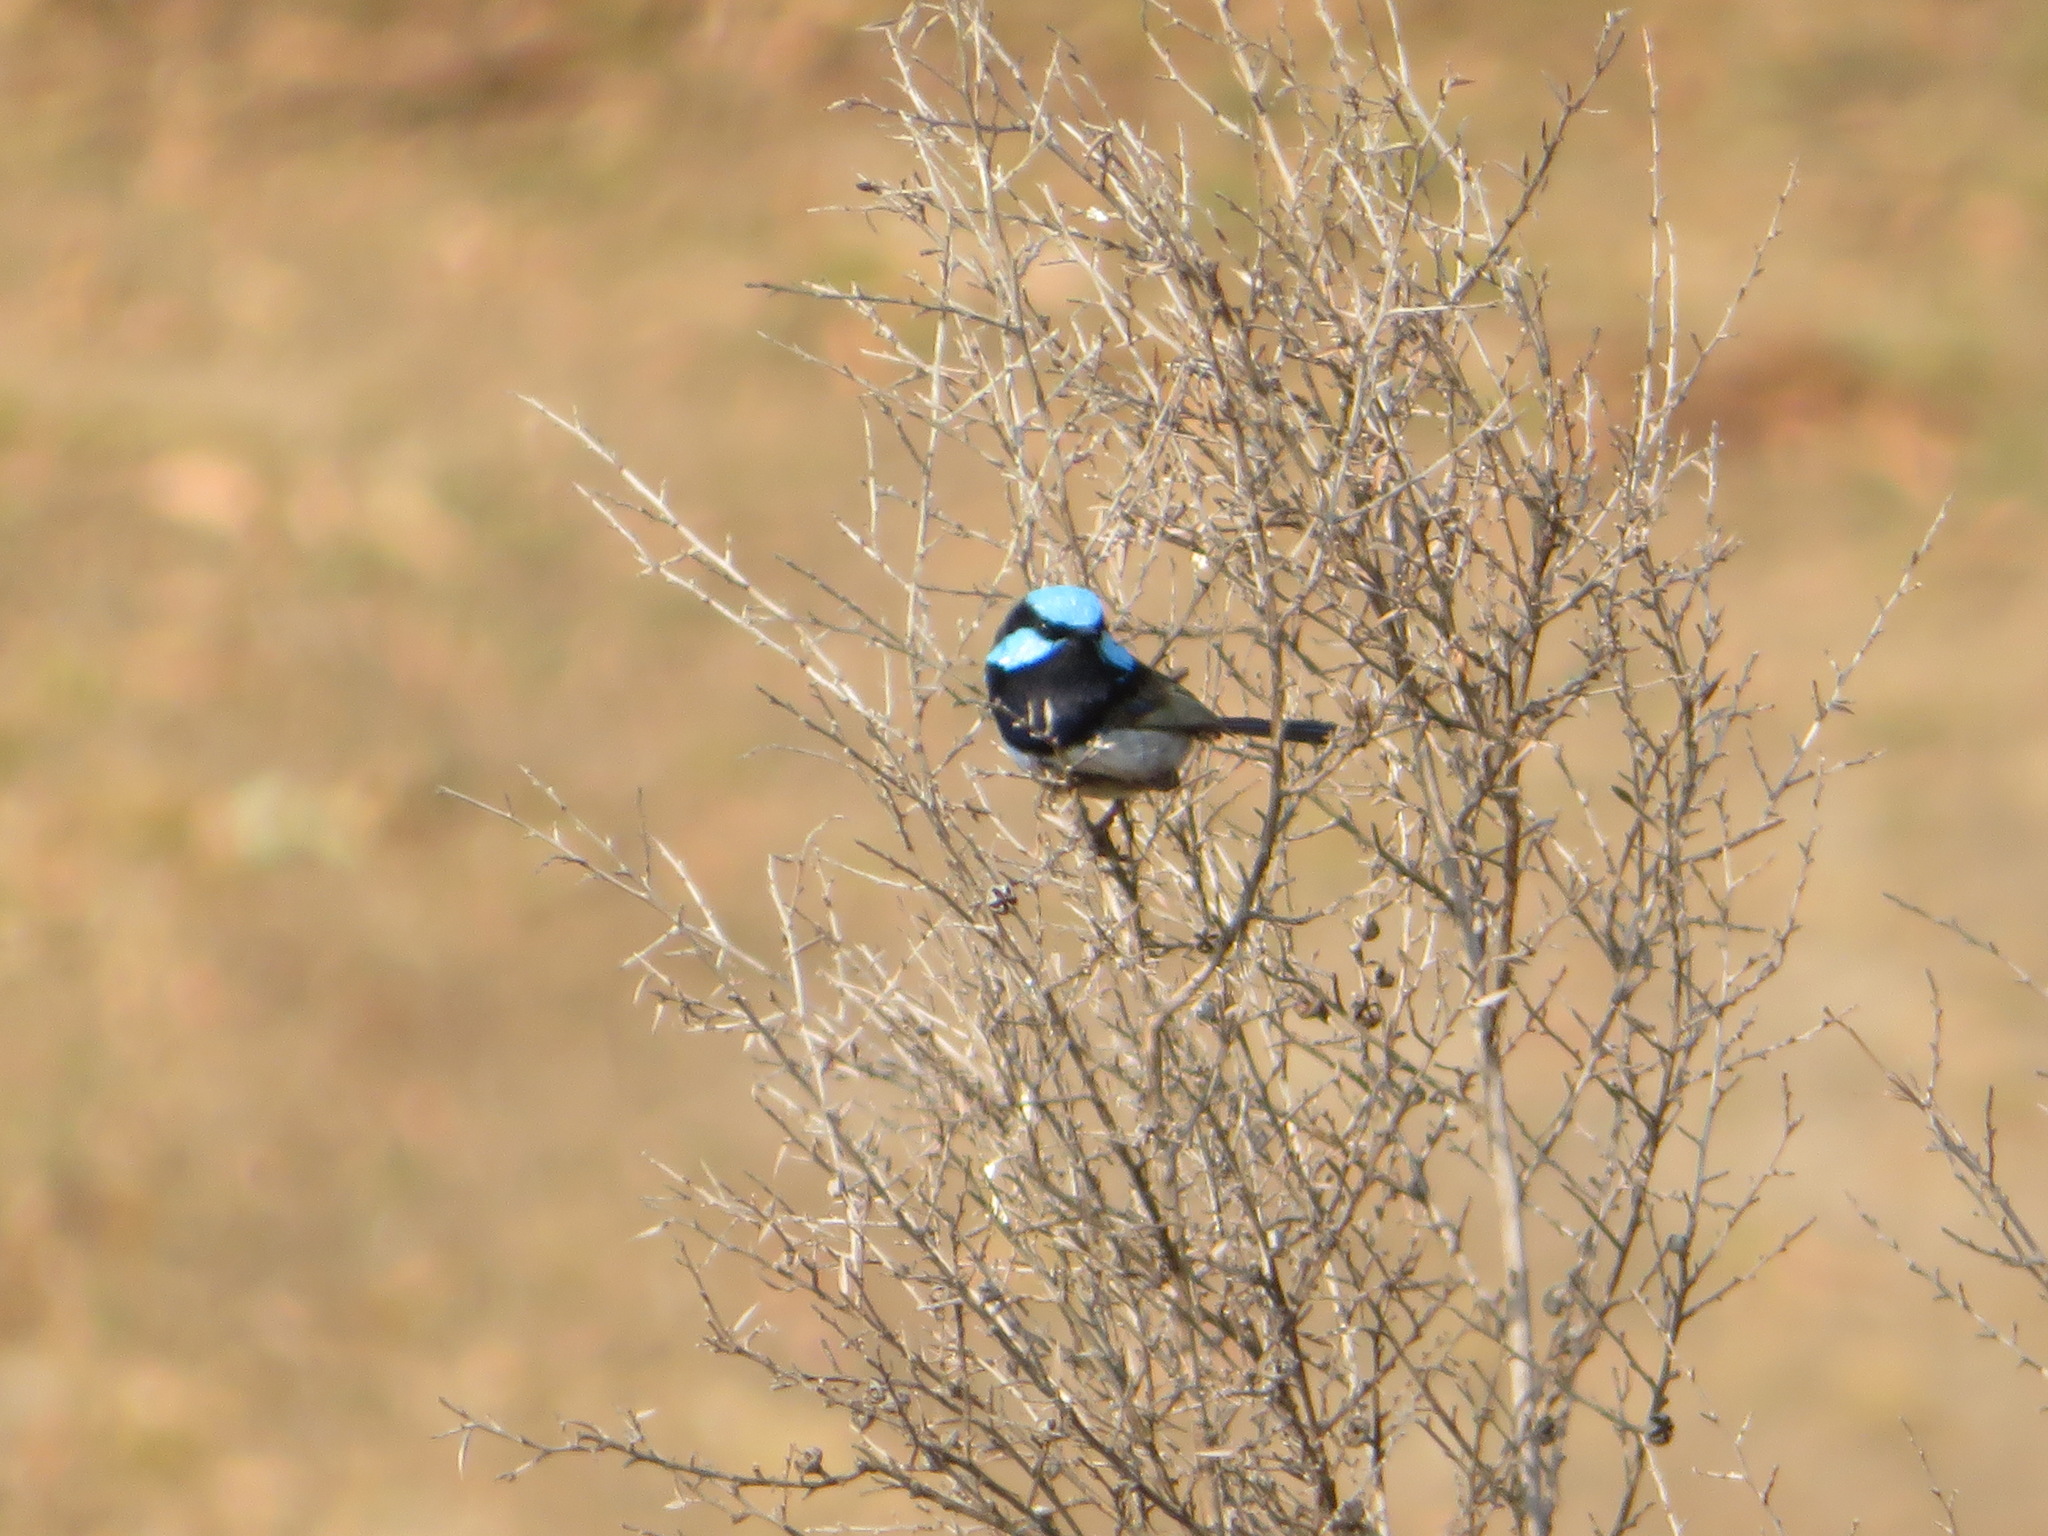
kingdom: Animalia
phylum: Chordata
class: Aves
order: Passeriformes
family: Maluridae
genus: Malurus
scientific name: Malurus cyaneus
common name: Superb fairywren
